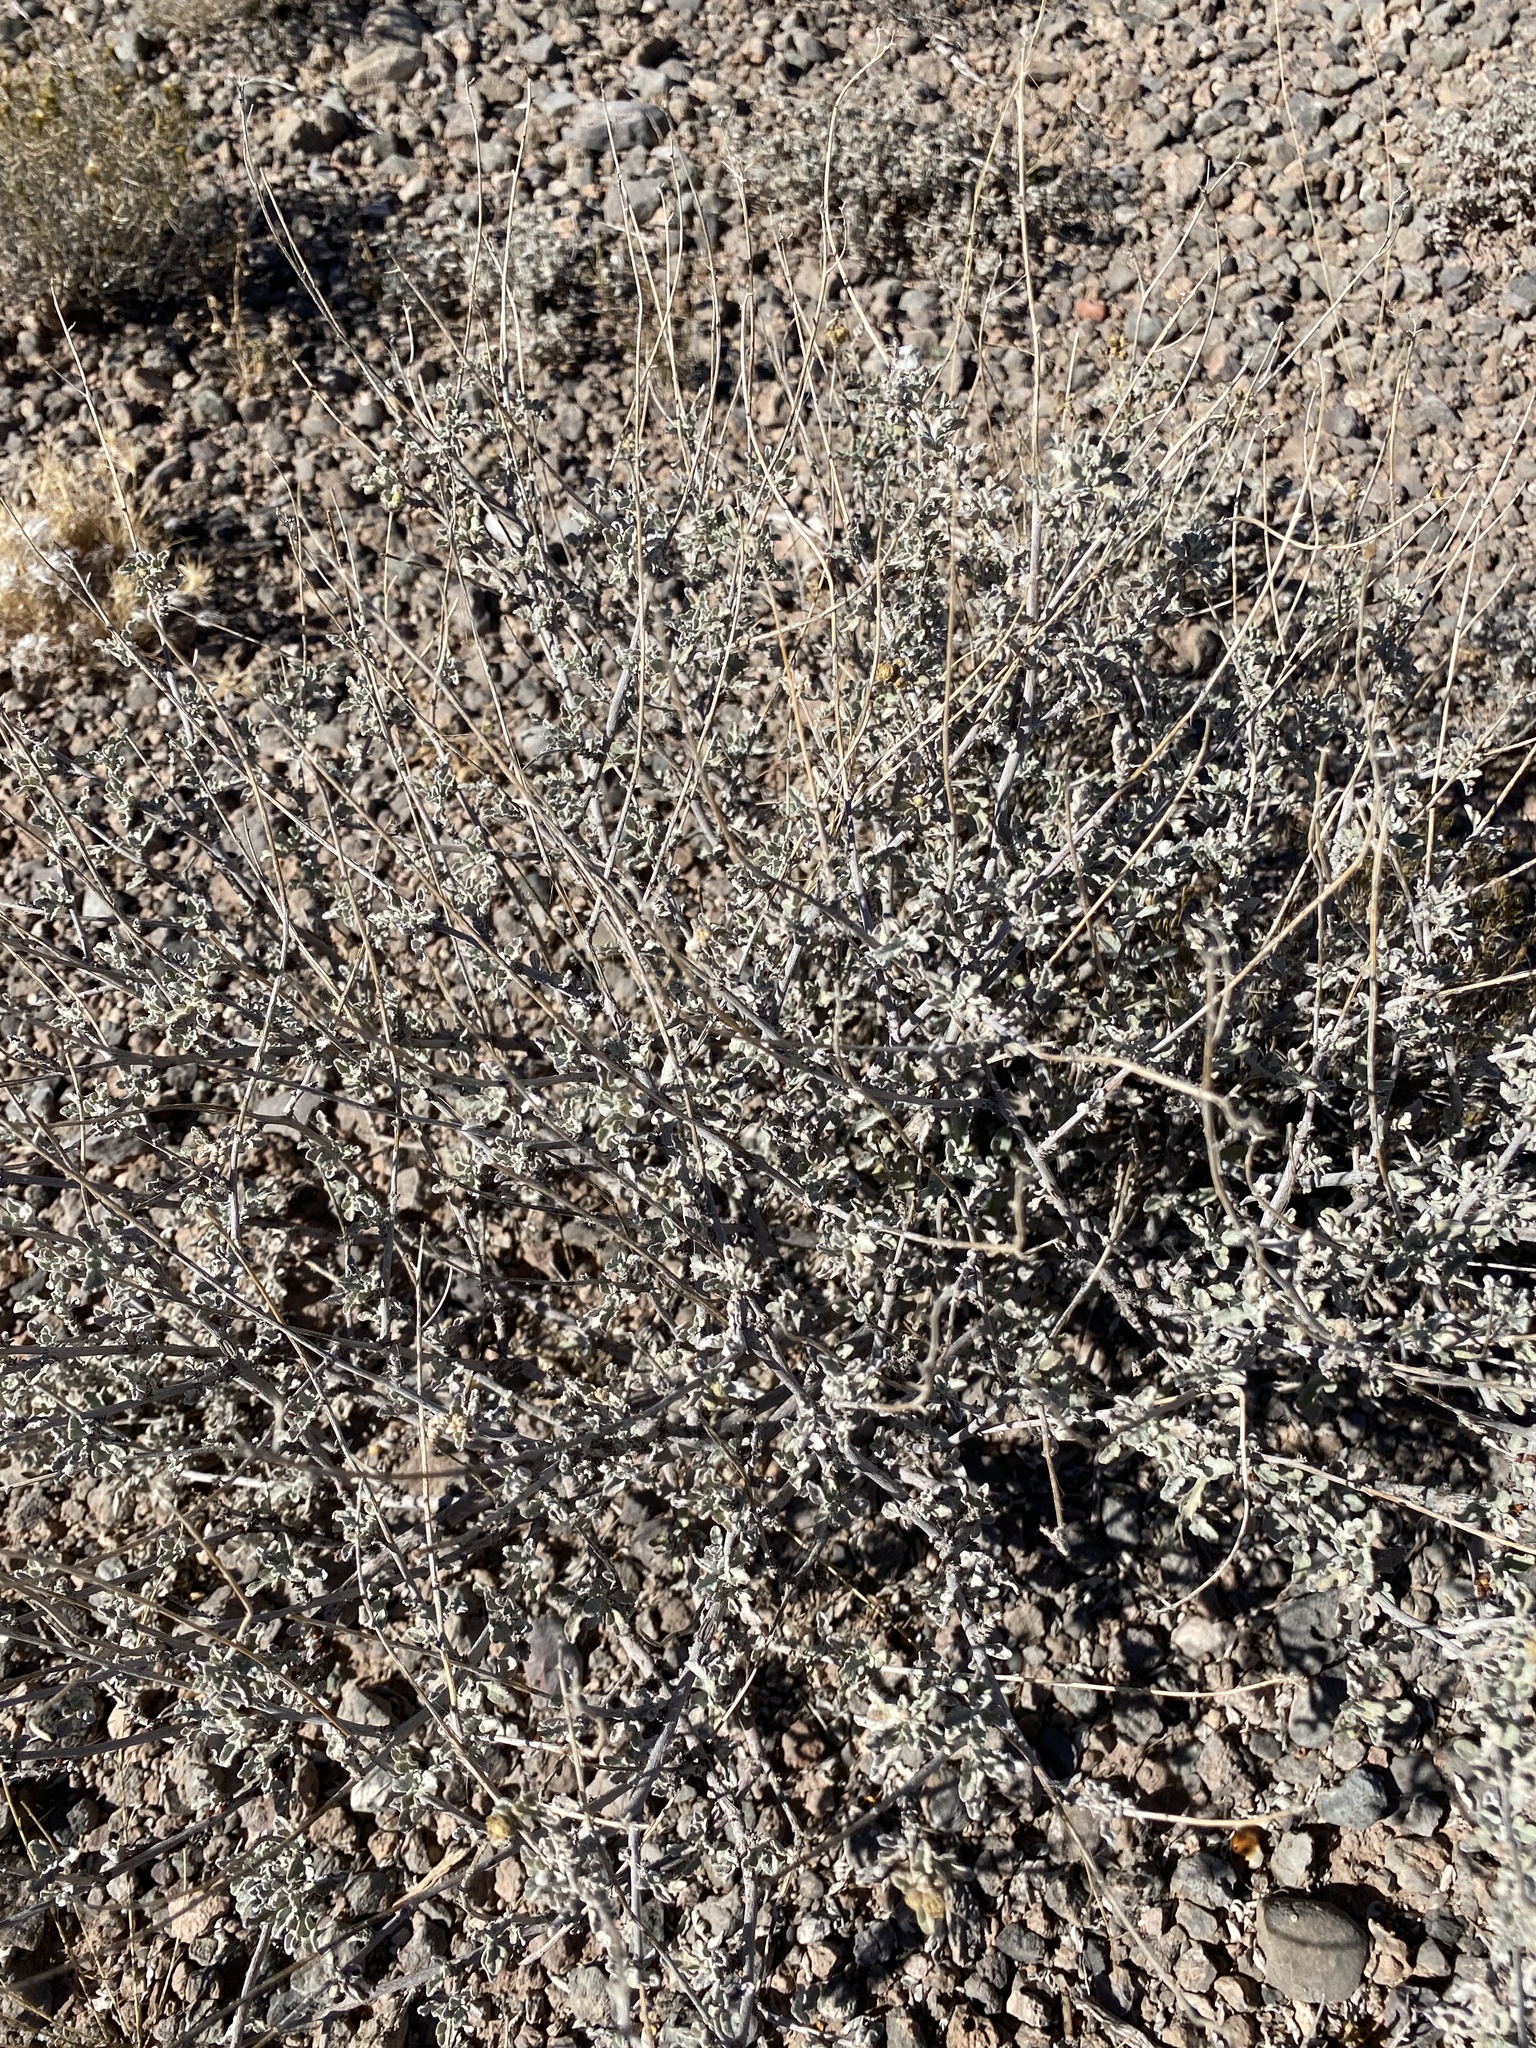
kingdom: Plantae
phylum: Tracheophyta
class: Magnoliopsida
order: Asterales
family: Asteraceae
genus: Parthenium
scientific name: Parthenium incanum
